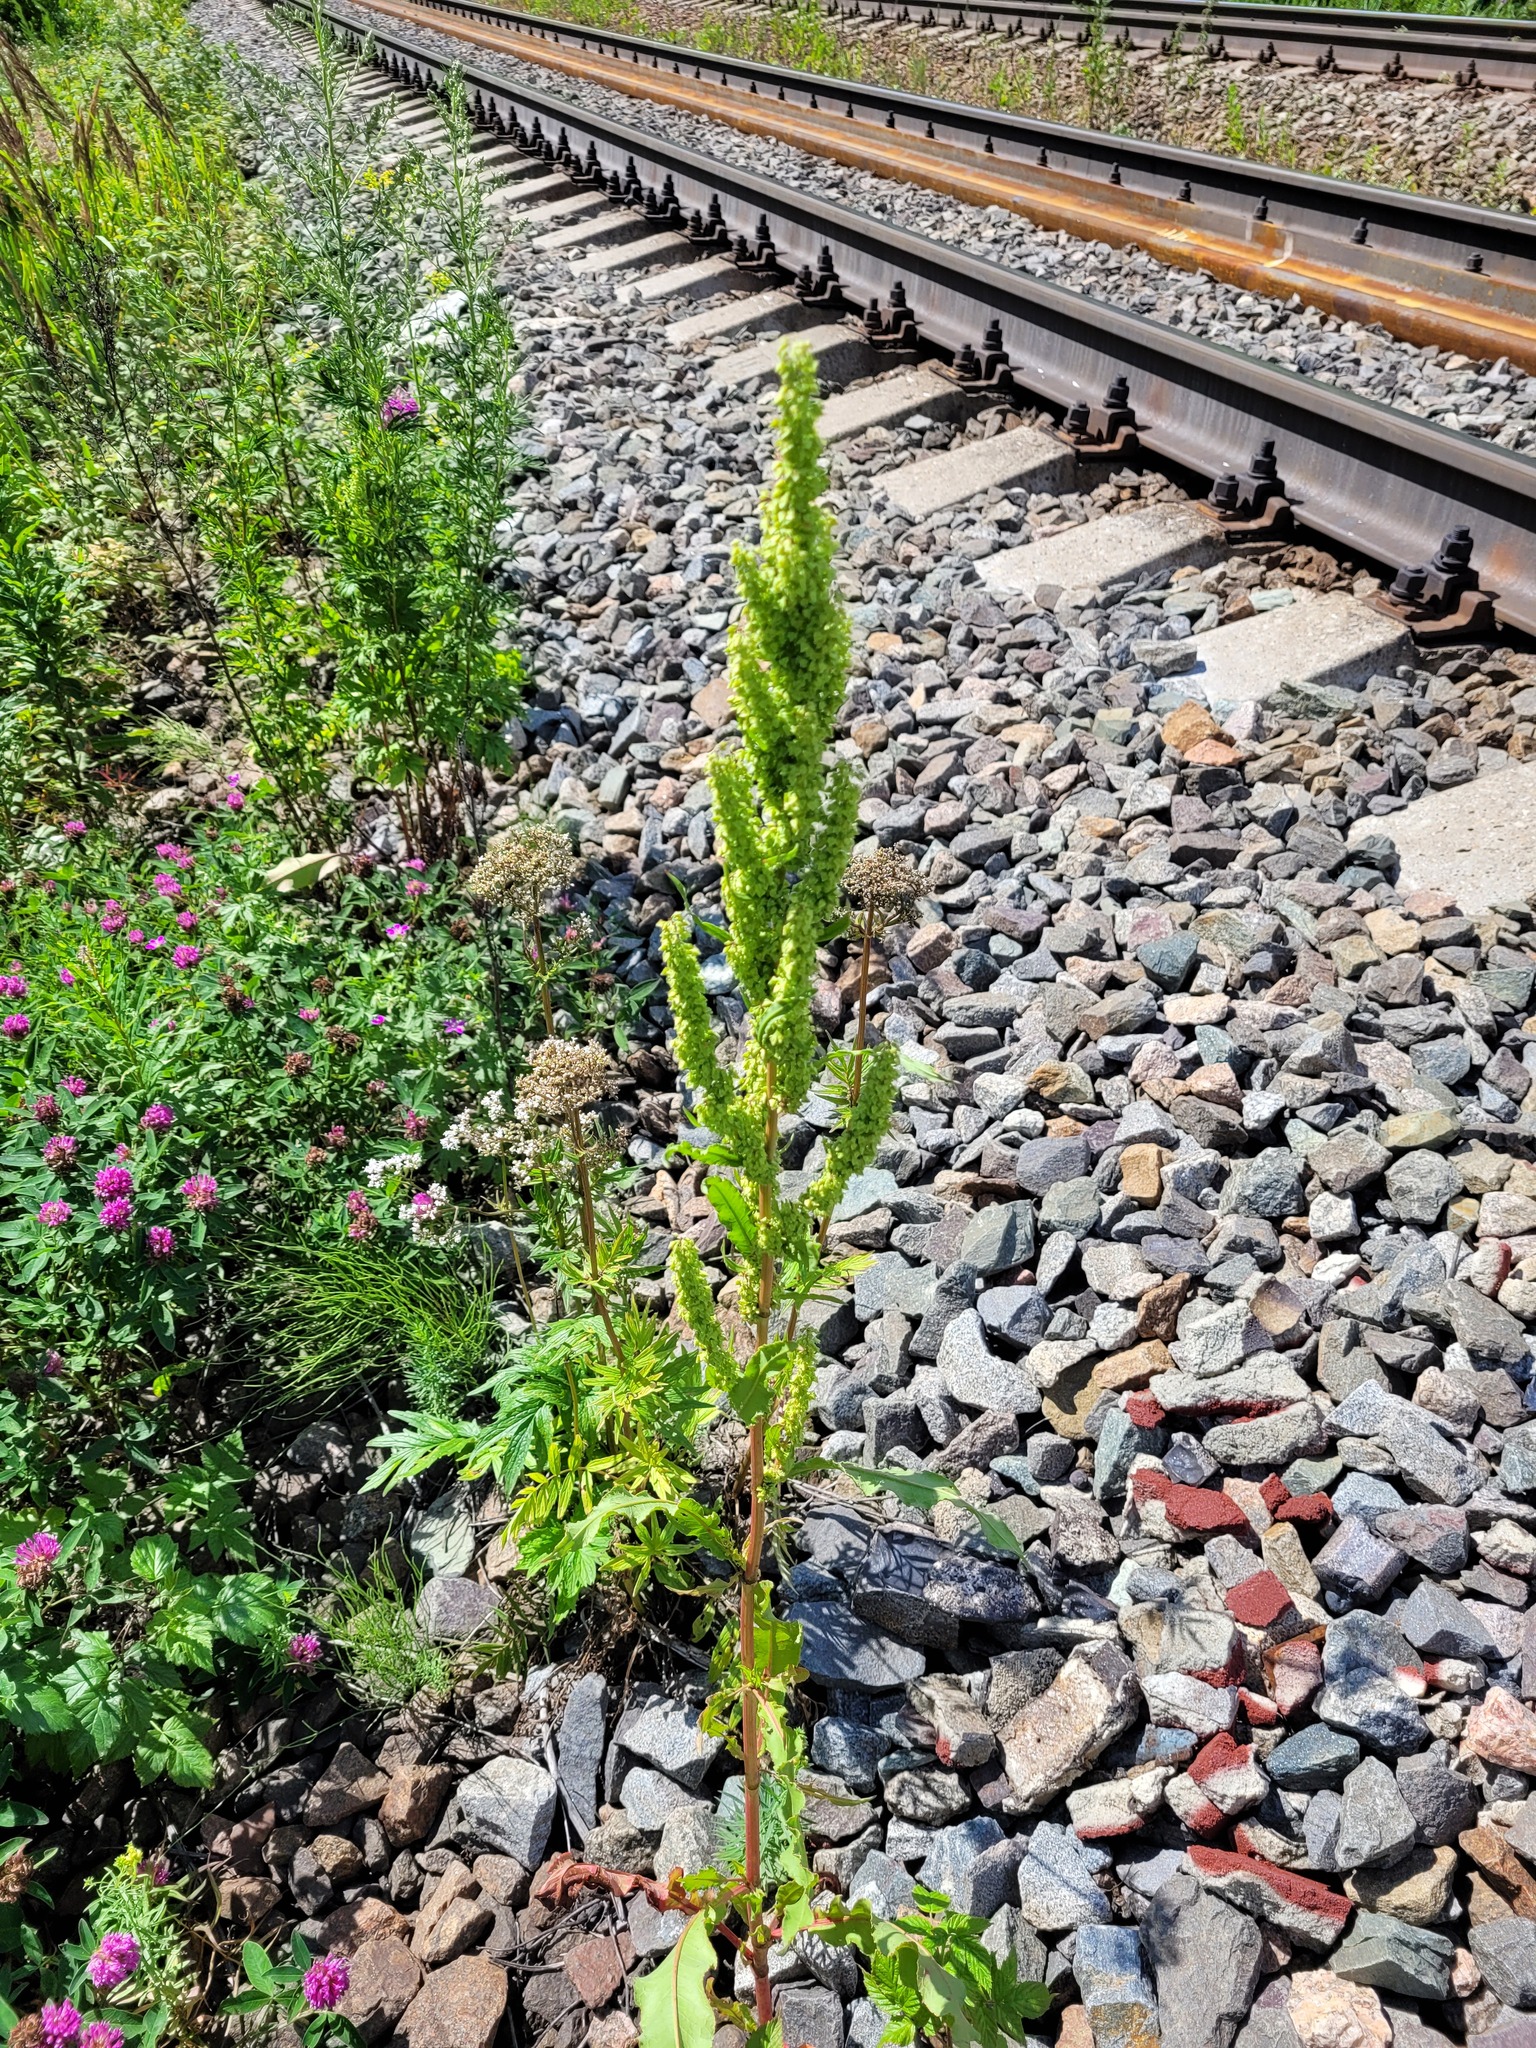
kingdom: Plantae
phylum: Tracheophyta
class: Magnoliopsida
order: Caryophyllales
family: Polygonaceae
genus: Rumex
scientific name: Rumex stenophyllus
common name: Narrowleaf dock
